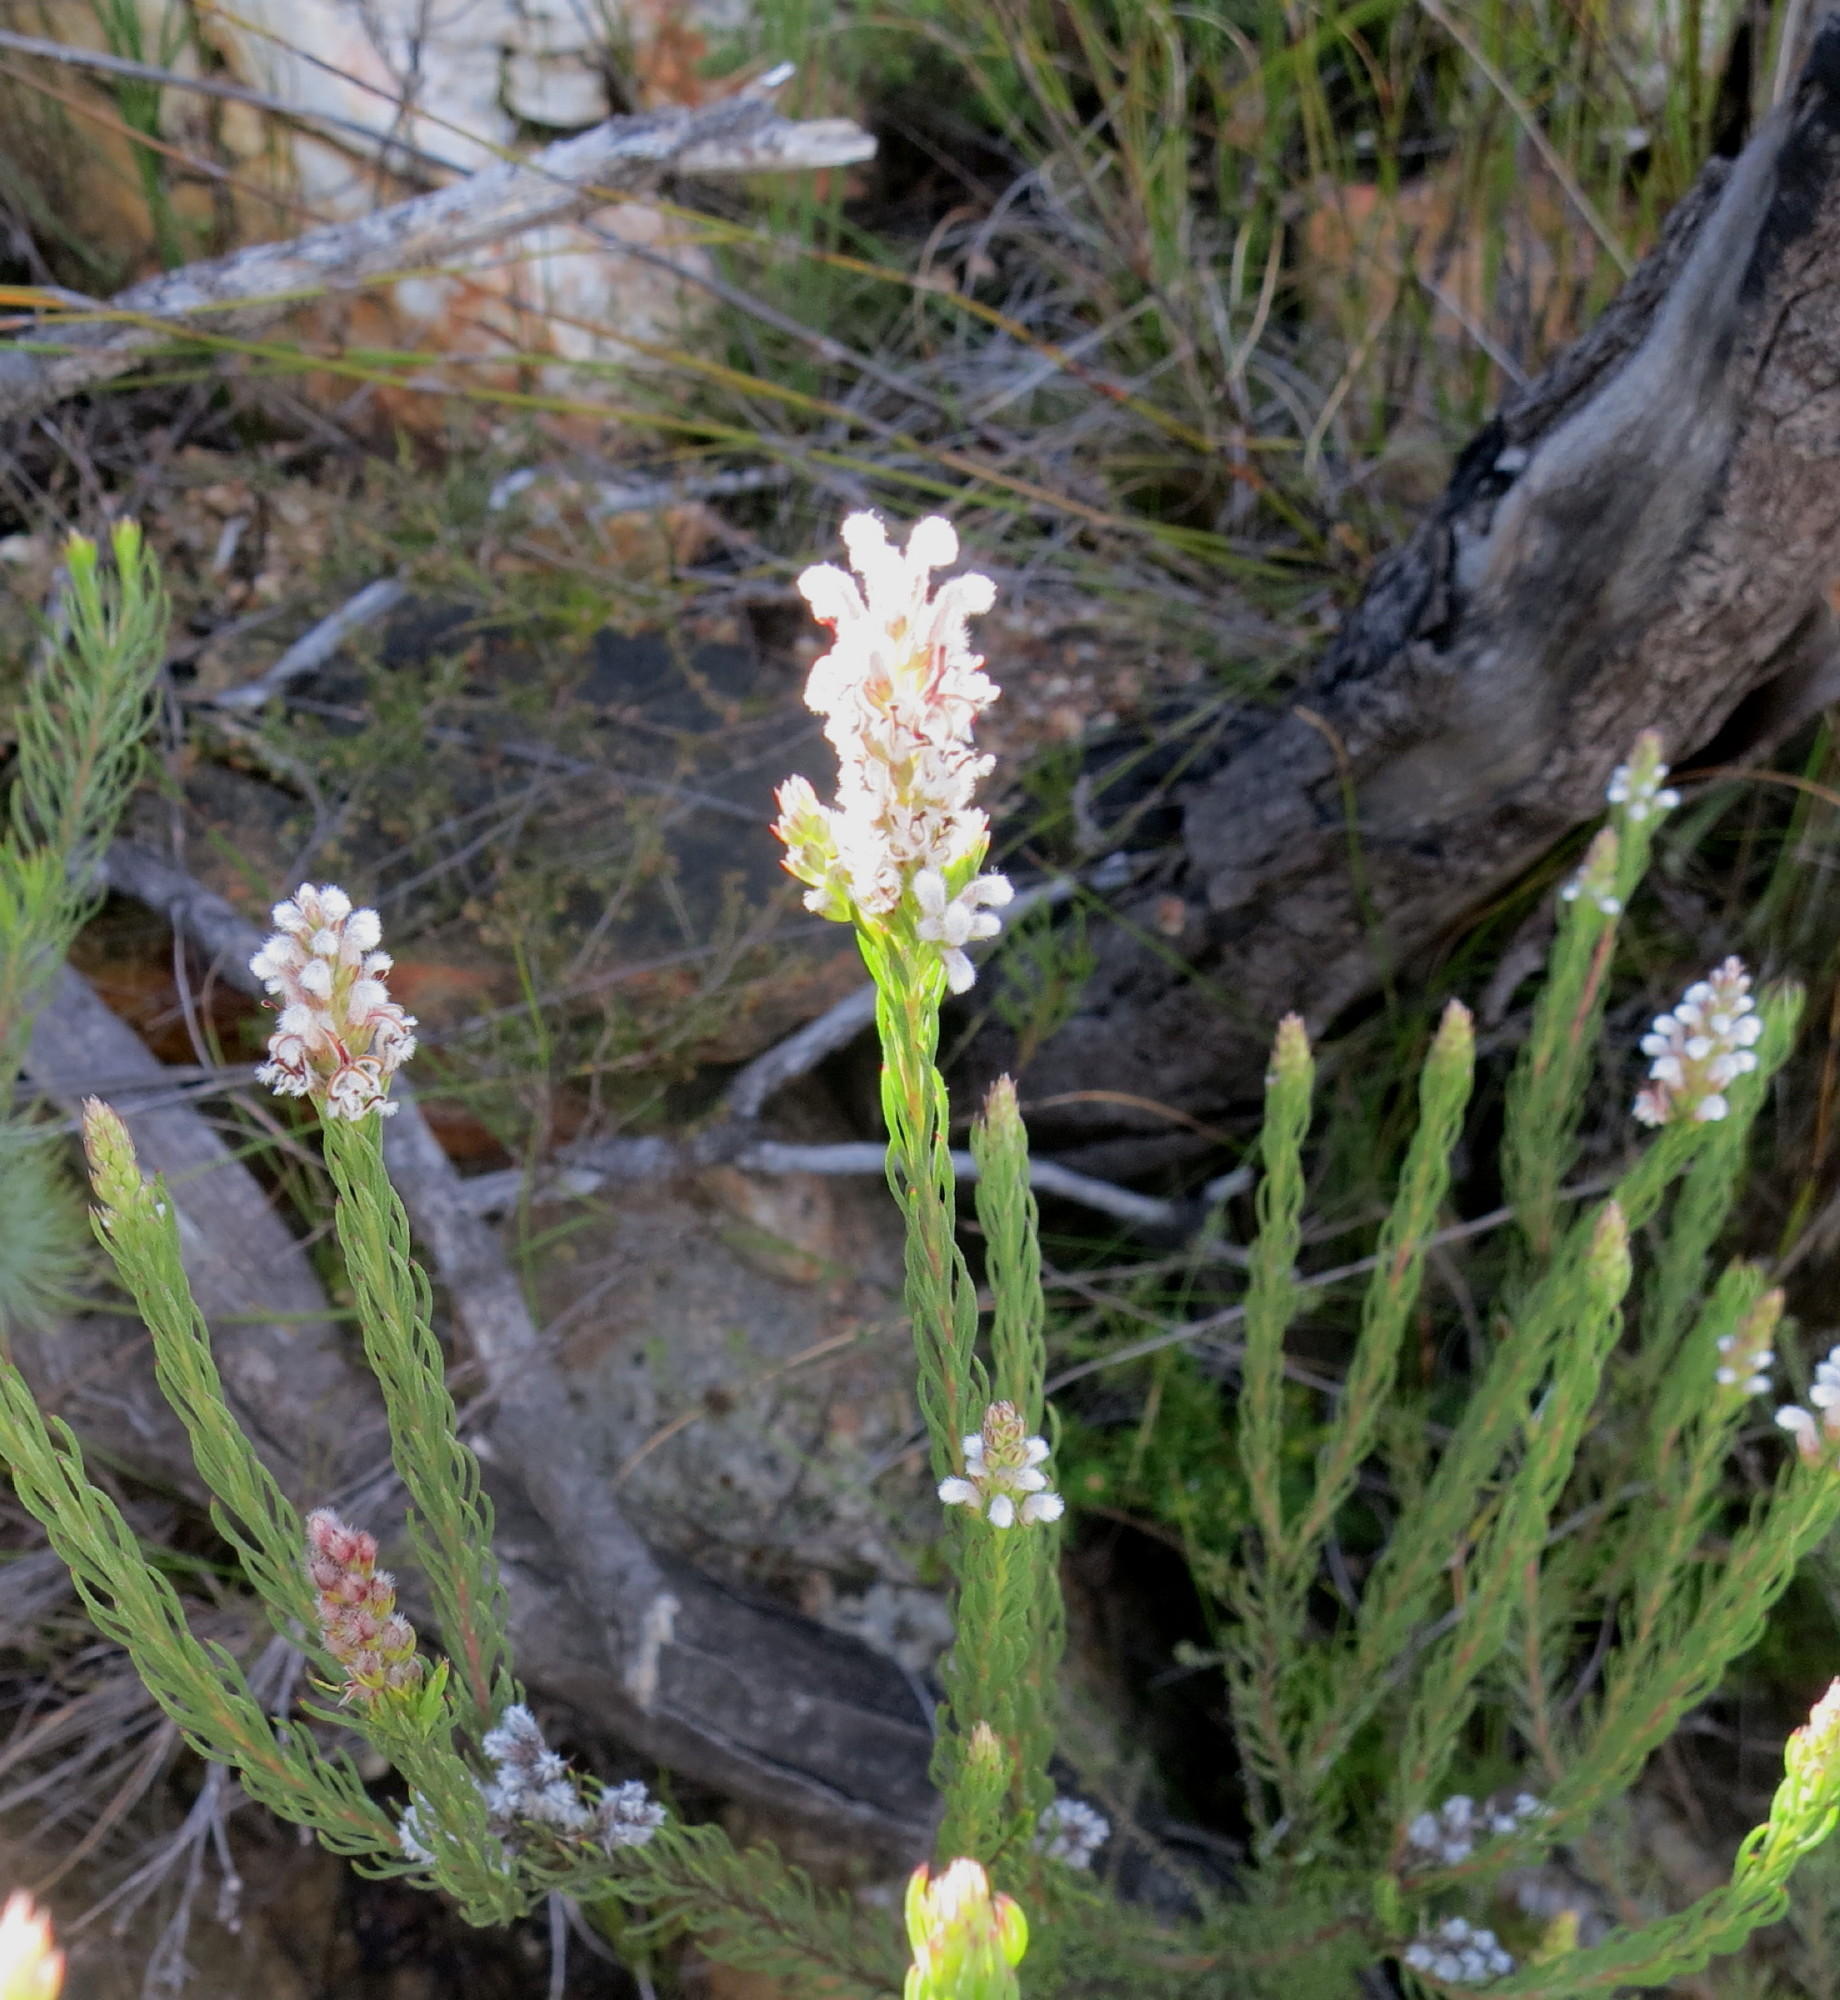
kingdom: Plantae
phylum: Tracheophyta
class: Magnoliopsida
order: Proteales
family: Proteaceae
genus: Spatalla
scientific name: Spatalla barbigera
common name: Fine-leaf spoon
